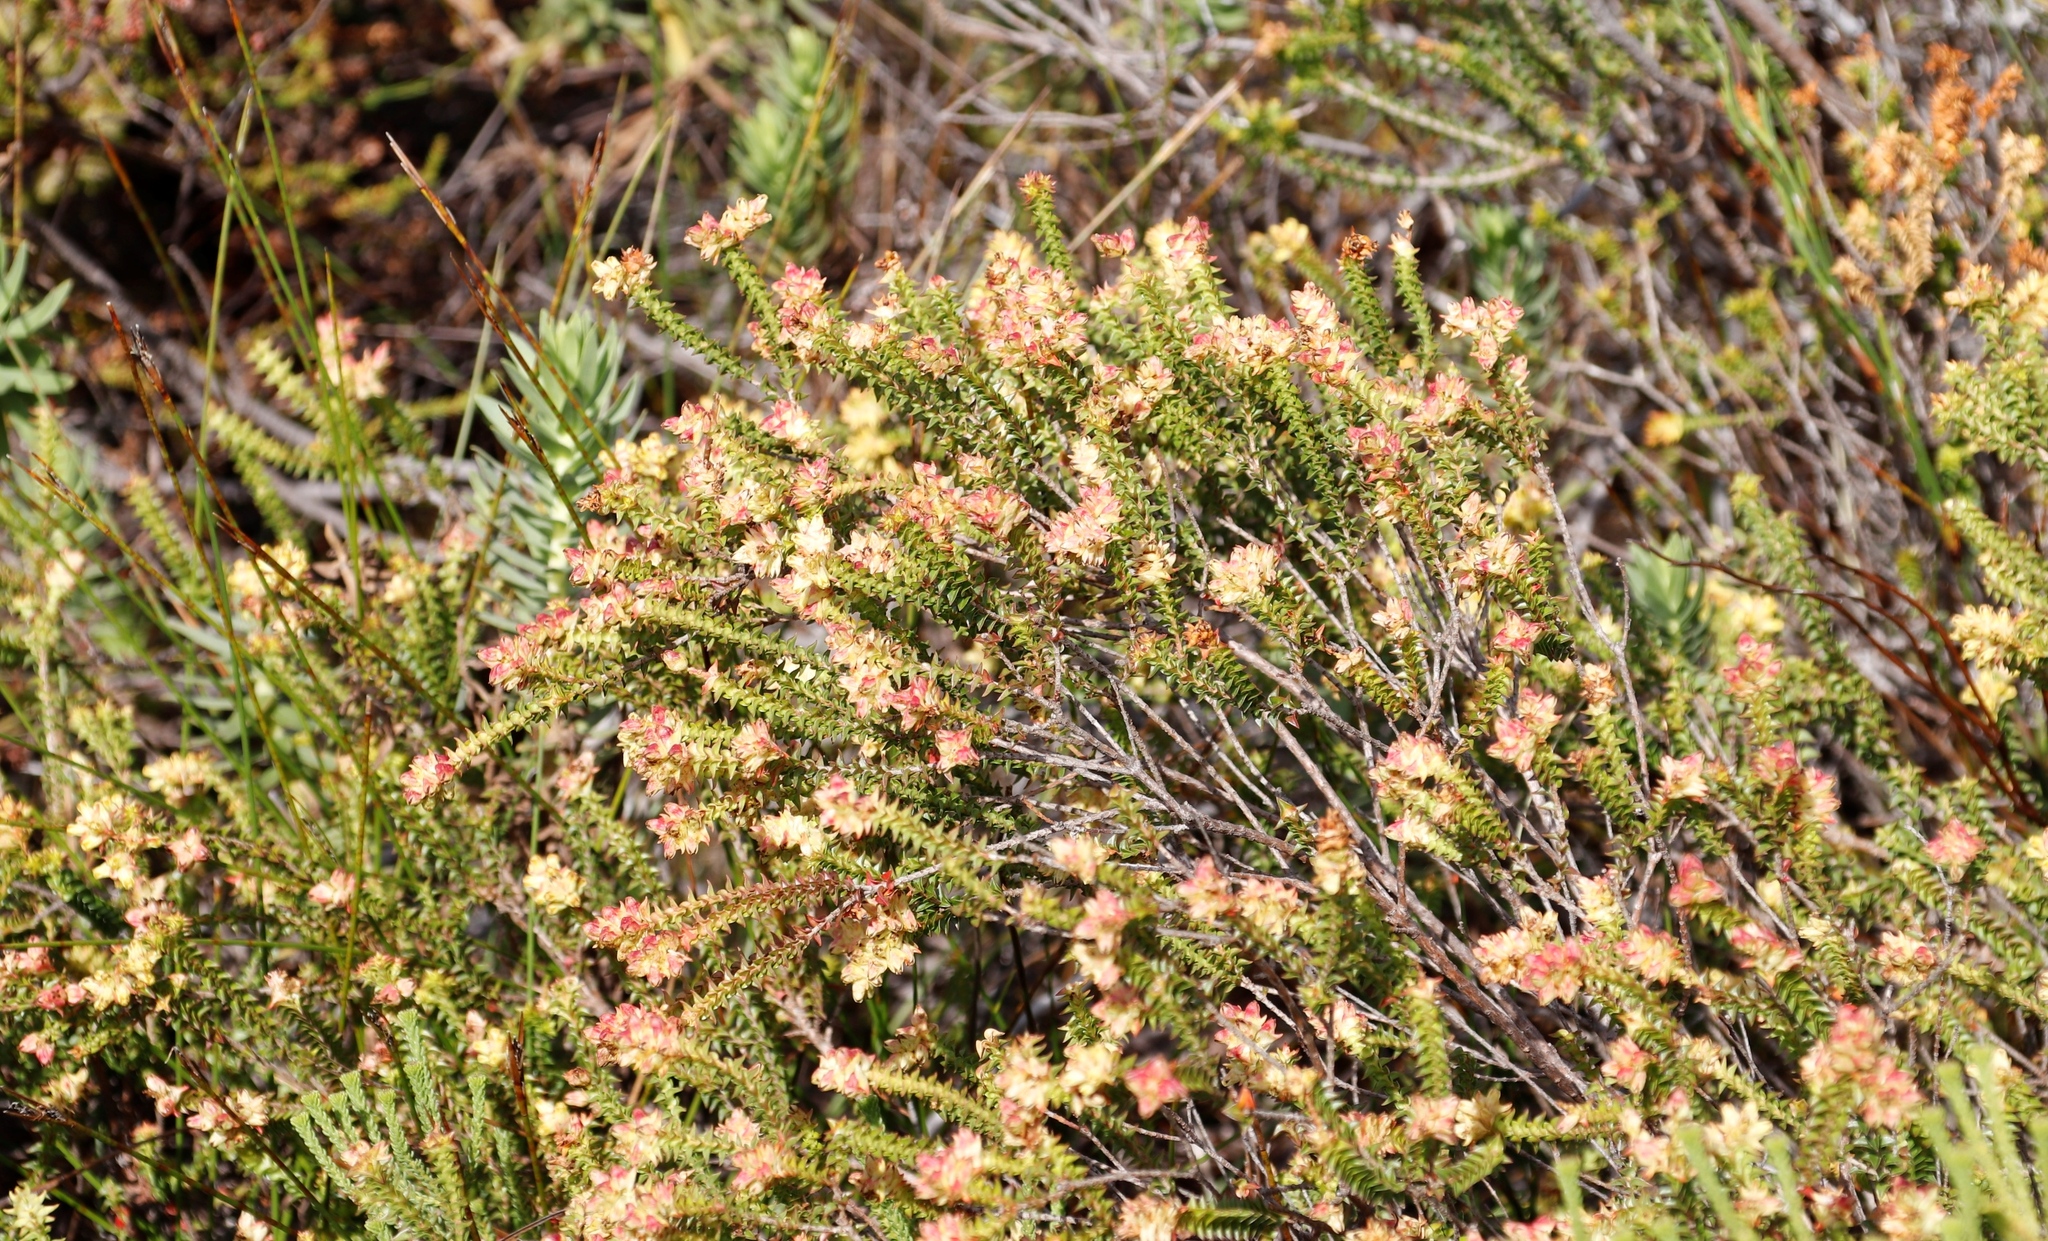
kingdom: Plantae
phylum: Tracheophyta
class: Magnoliopsida
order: Myrtales
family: Penaeaceae
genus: Penaea
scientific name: Penaea mucronata
